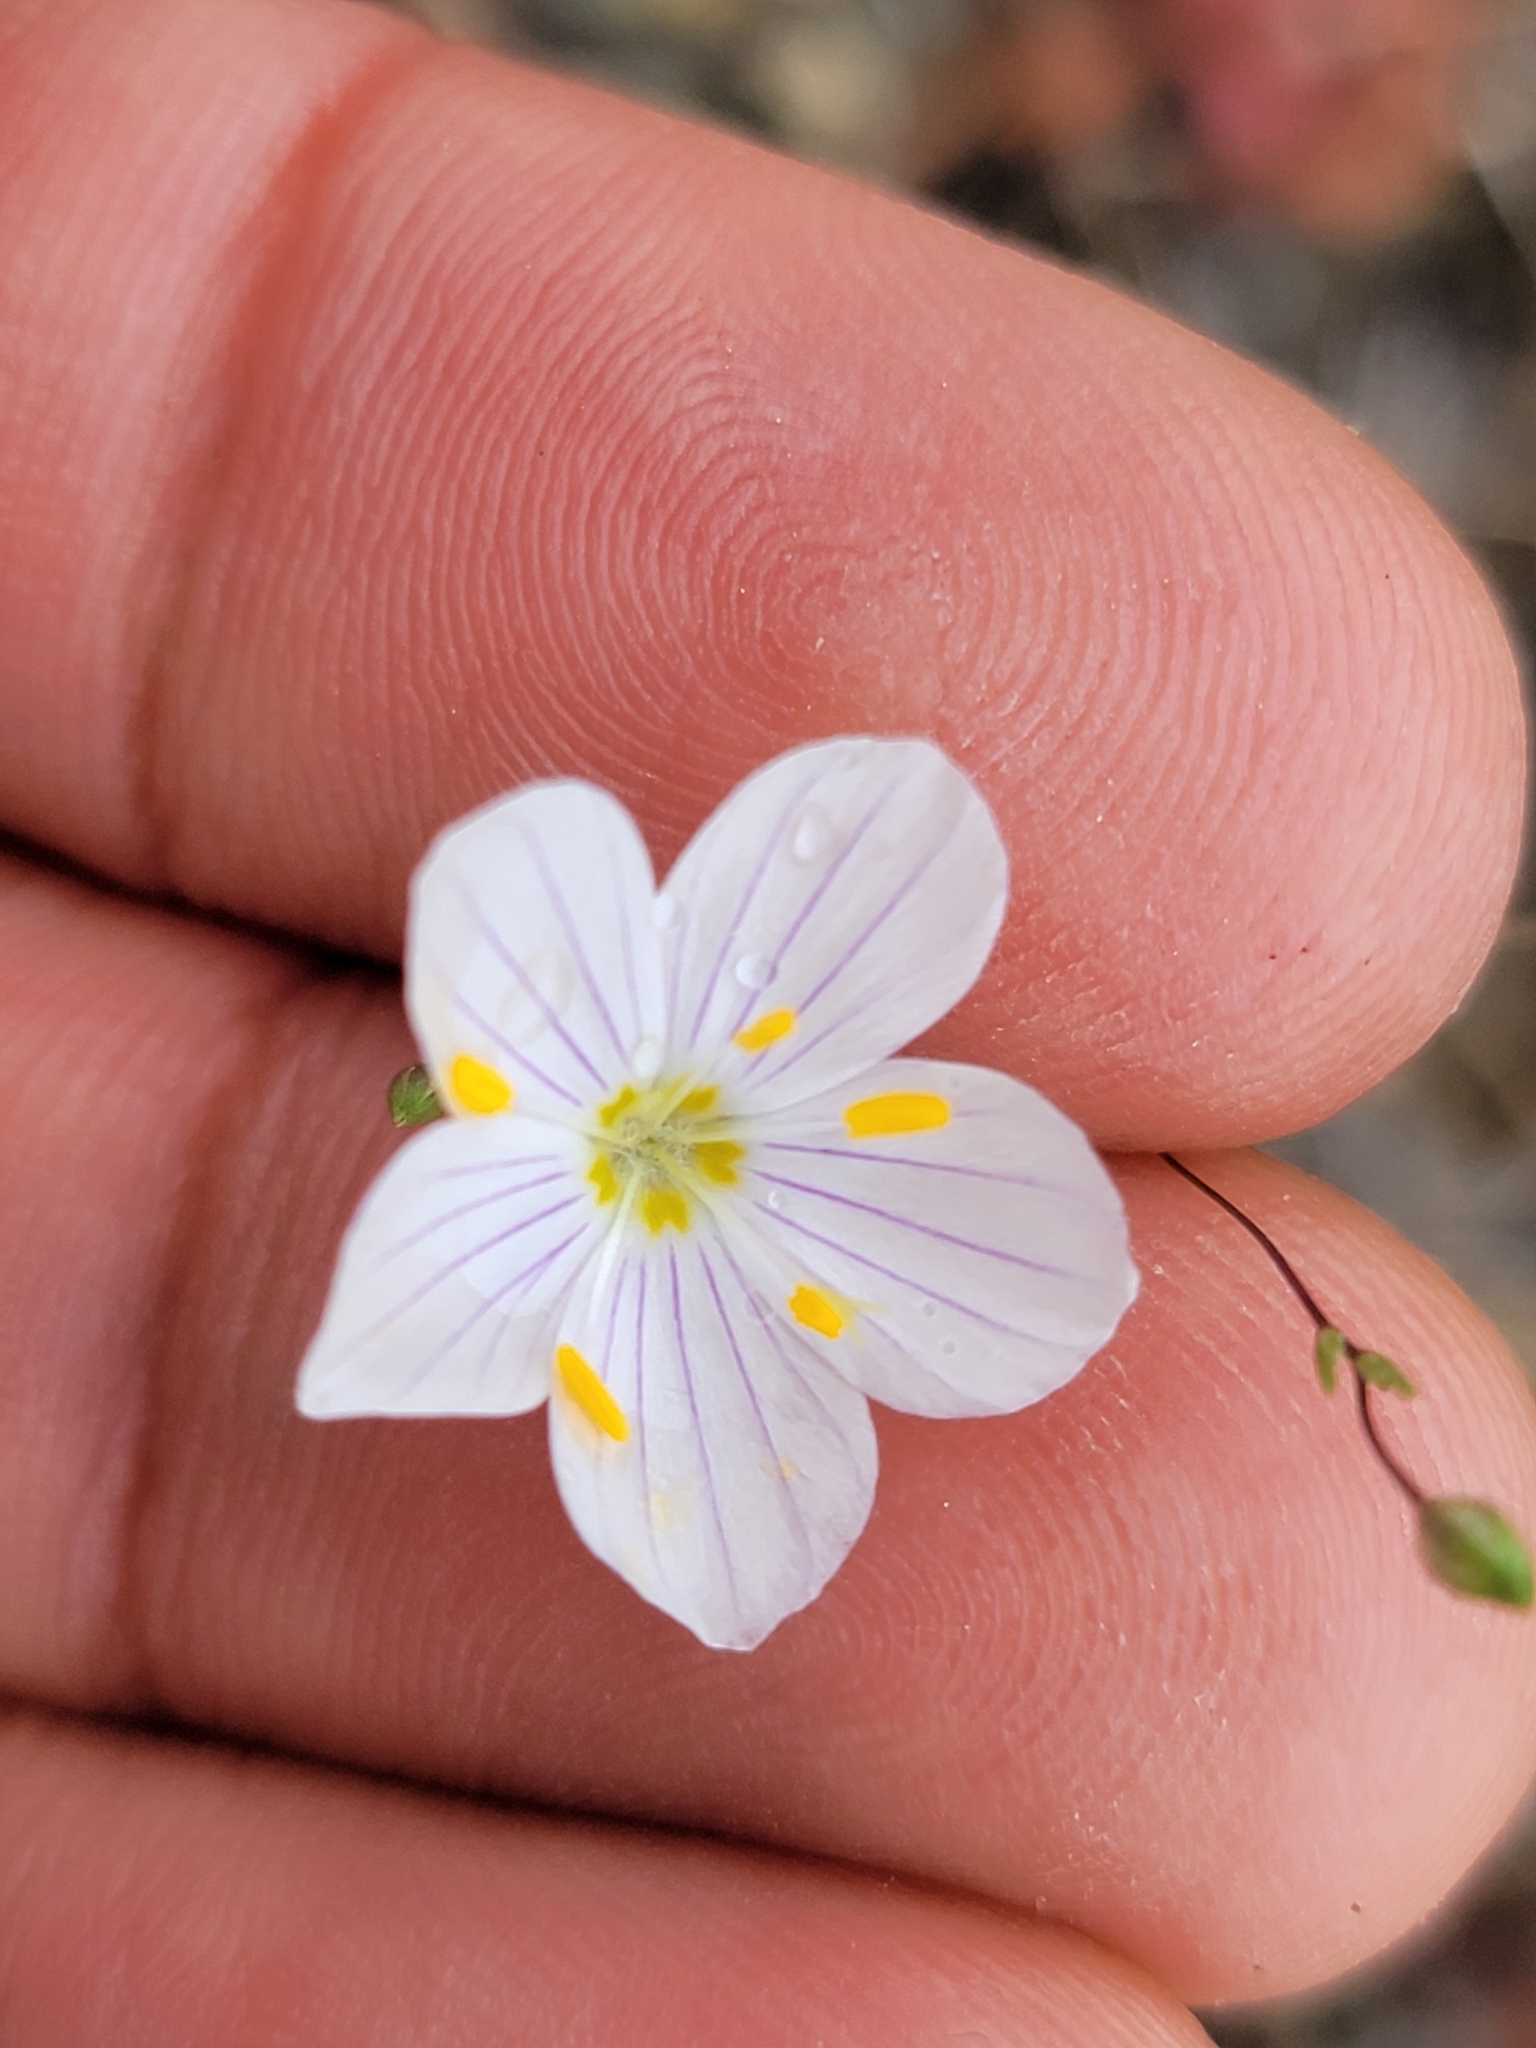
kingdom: Plantae
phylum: Tracheophyta
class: Magnoliopsida
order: Ericales
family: Polemoniaceae
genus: Leptosiphon
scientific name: Leptosiphon liniflorus
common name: Narrowflower flaxflower
